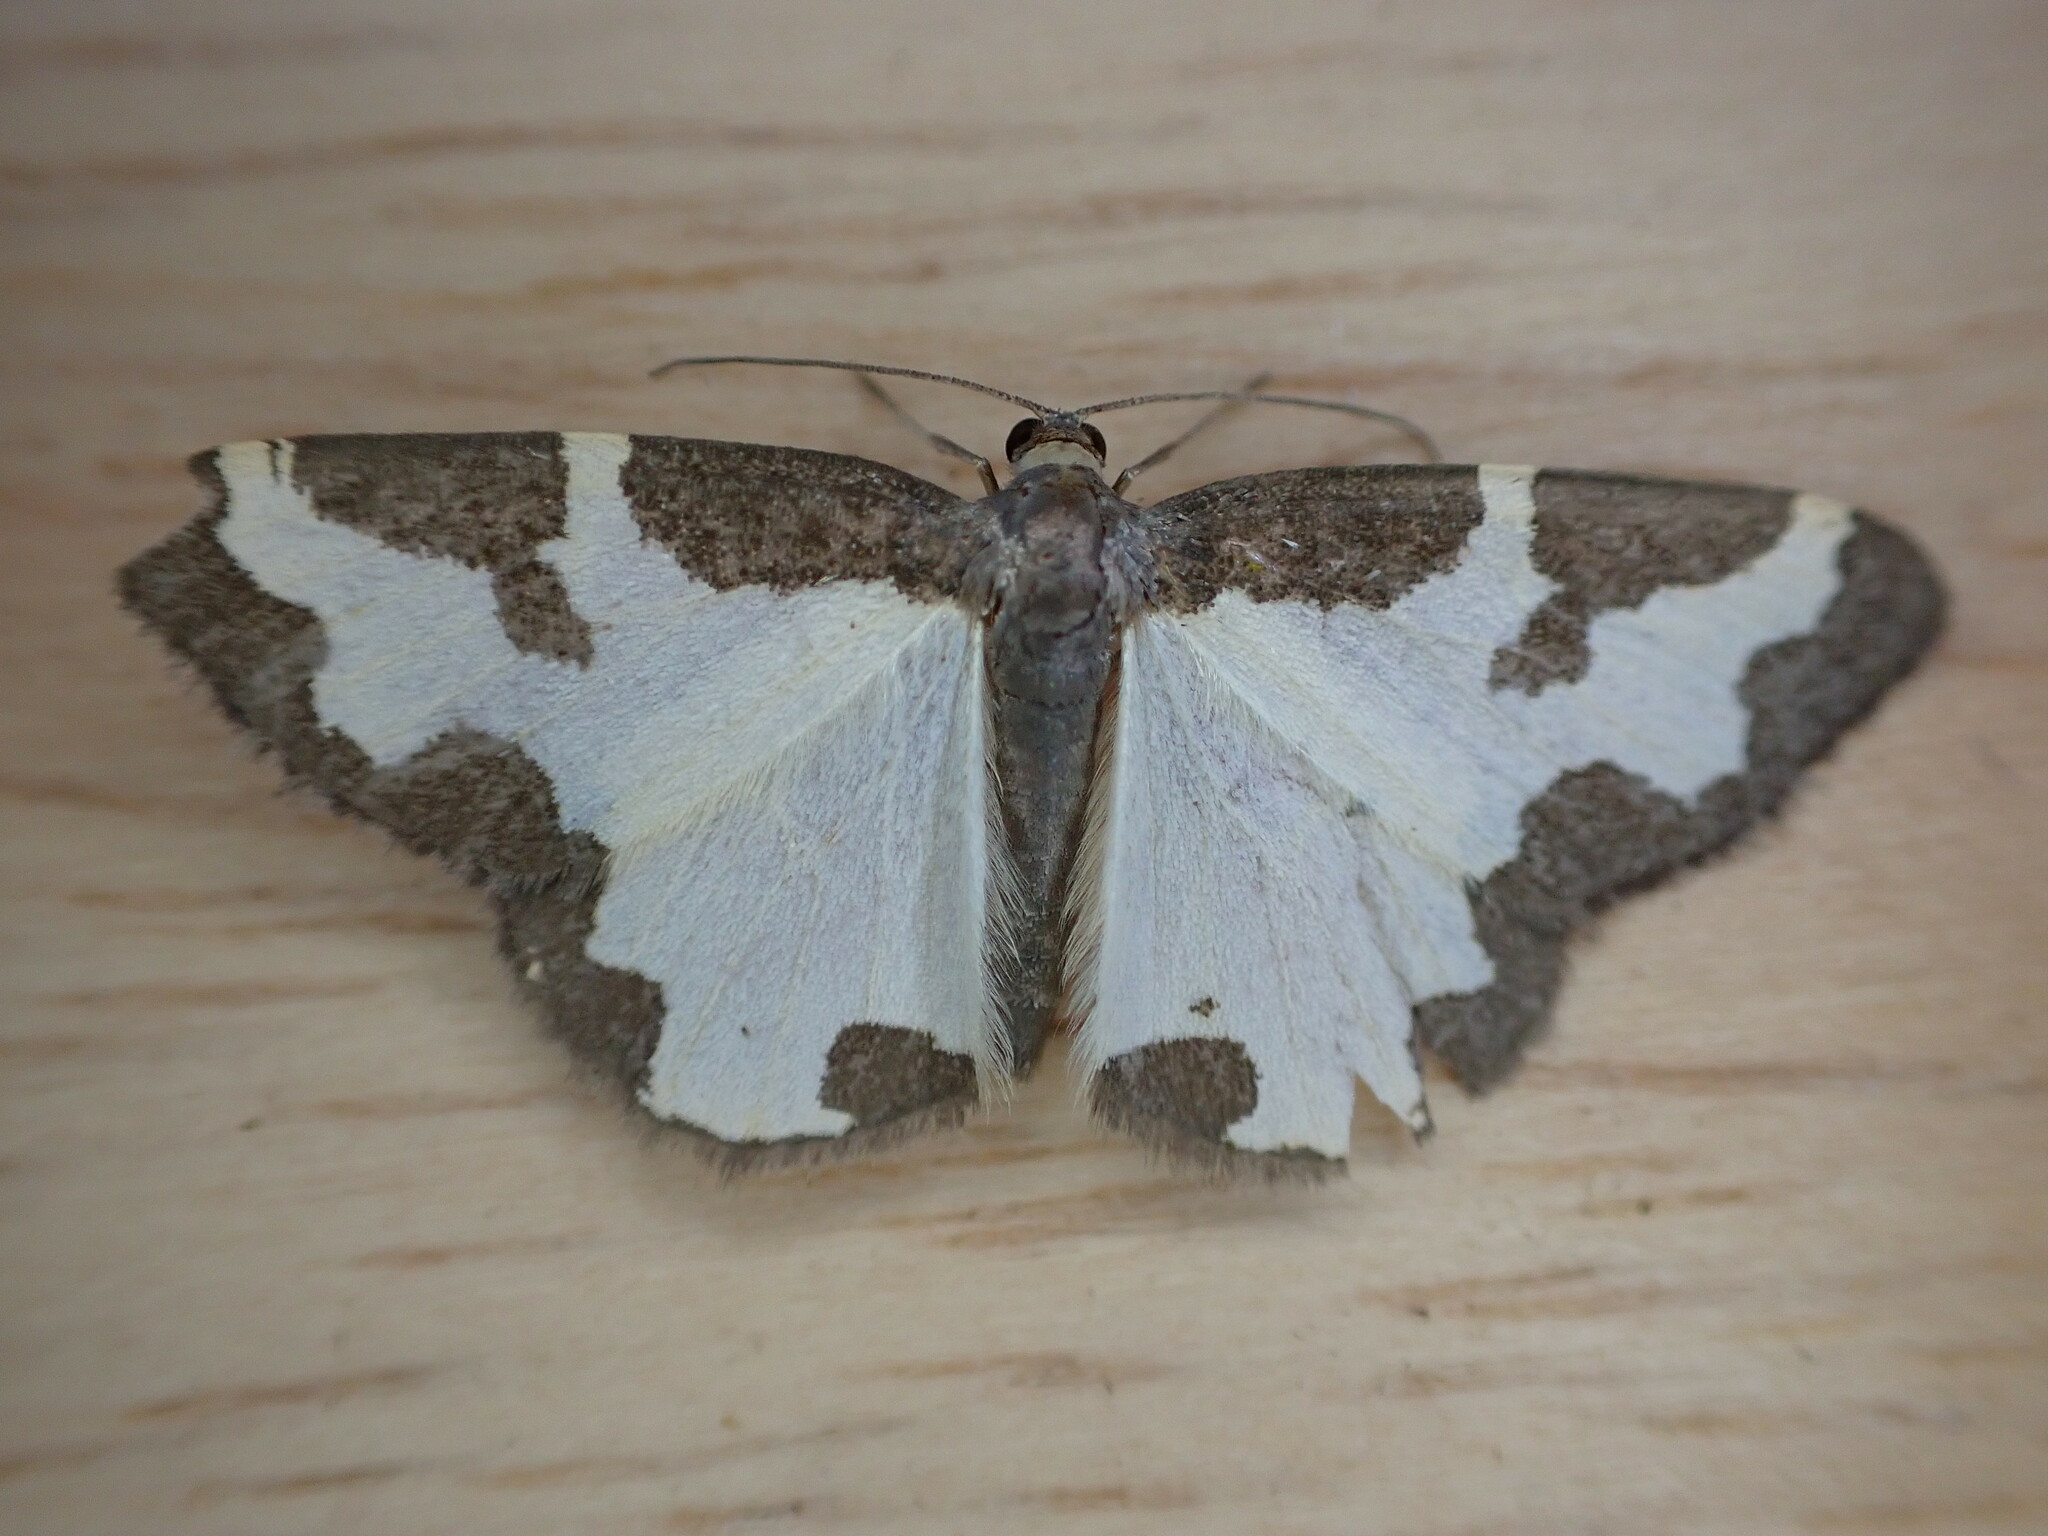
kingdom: Animalia
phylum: Arthropoda
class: Insecta
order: Lepidoptera
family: Geometridae
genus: Lomaspilis
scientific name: Lomaspilis marginata
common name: Clouded border
